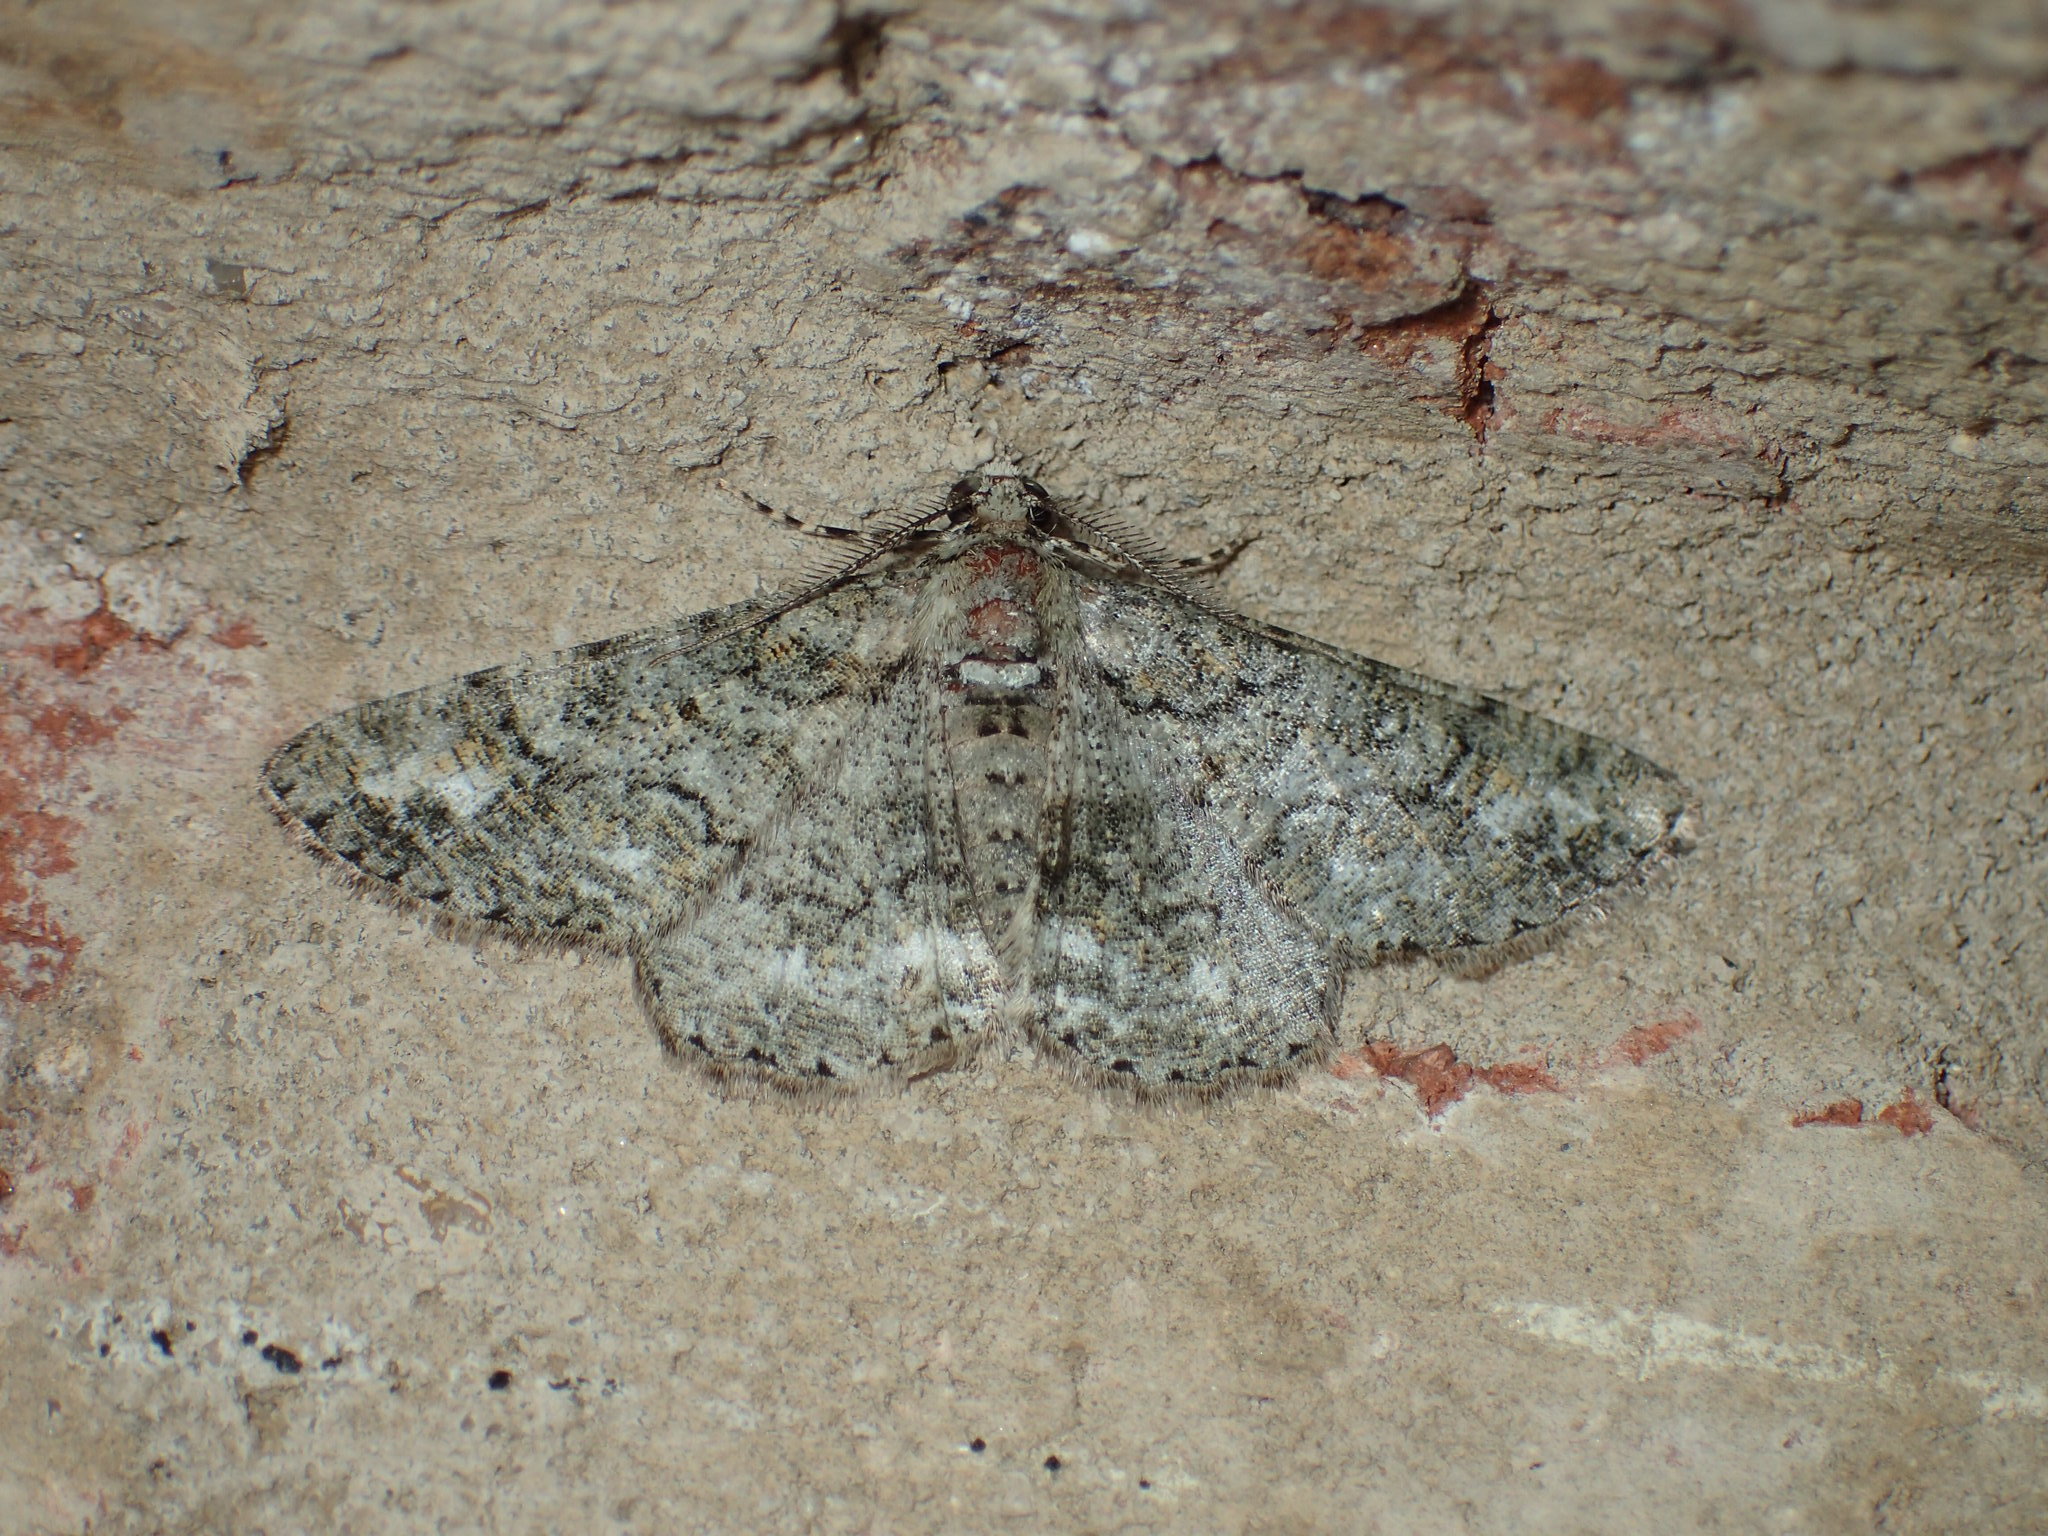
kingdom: Animalia
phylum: Arthropoda
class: Insecta
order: Lepidoptera
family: Geometridae
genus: Cleora
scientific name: Cleora sublunaria
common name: Double-lined gray
